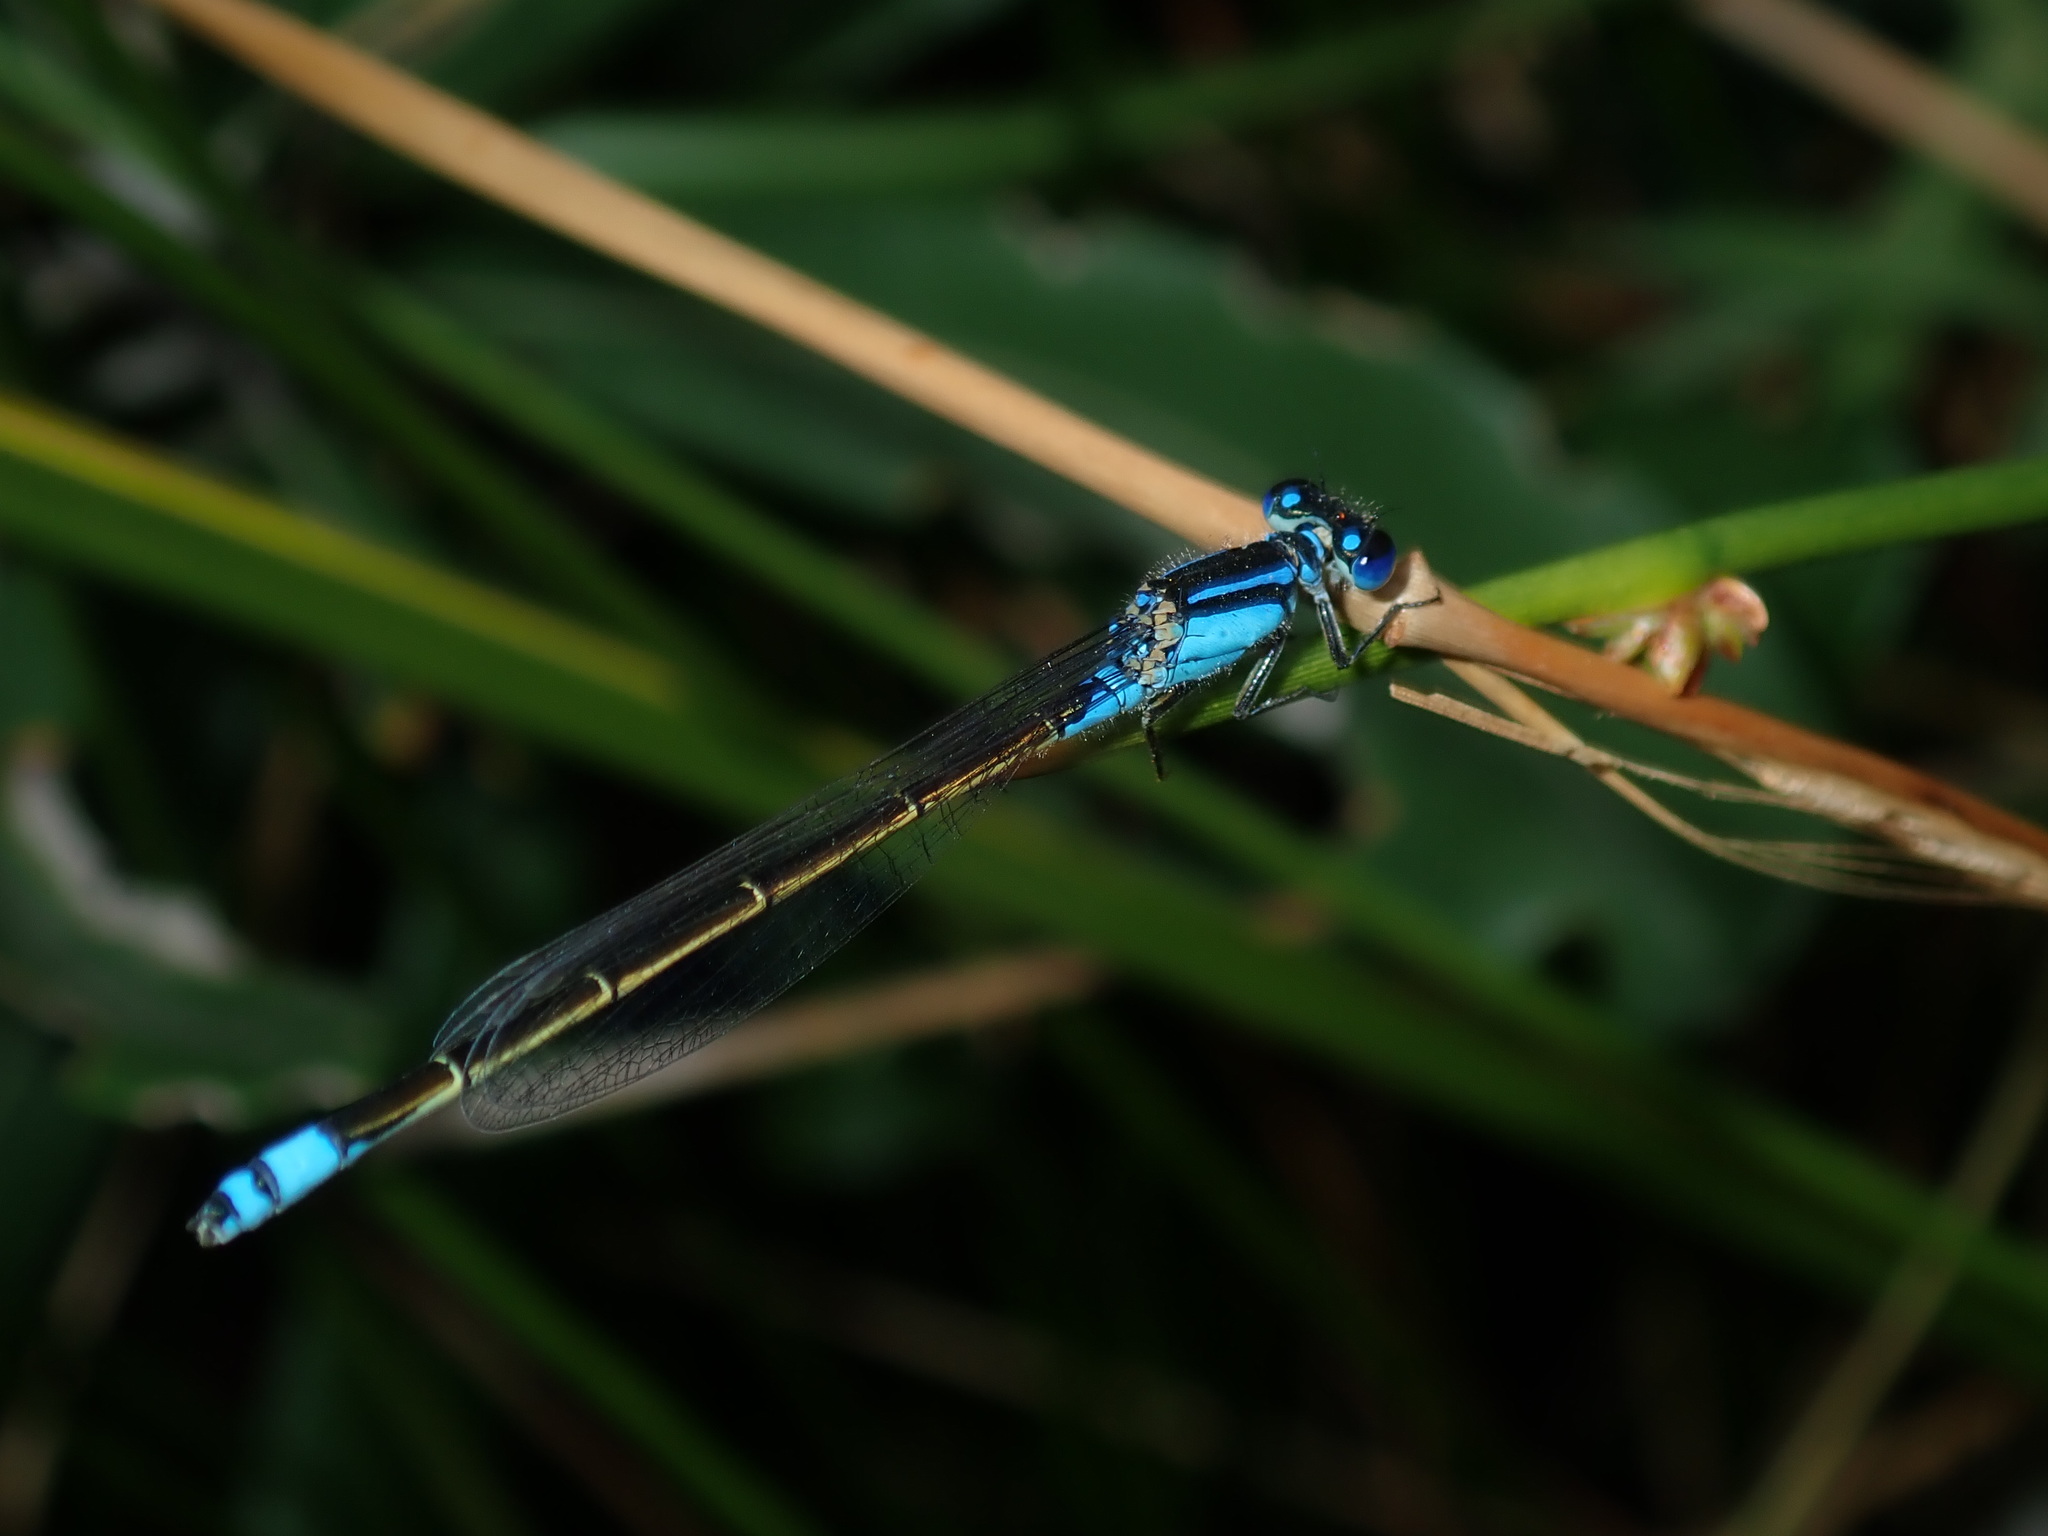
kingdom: Animalia
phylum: Arthropoda
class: Insecta
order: Odonata
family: Coenagrionidae
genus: Ischnura
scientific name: Ischnura heterosticta
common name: Common bluetail
